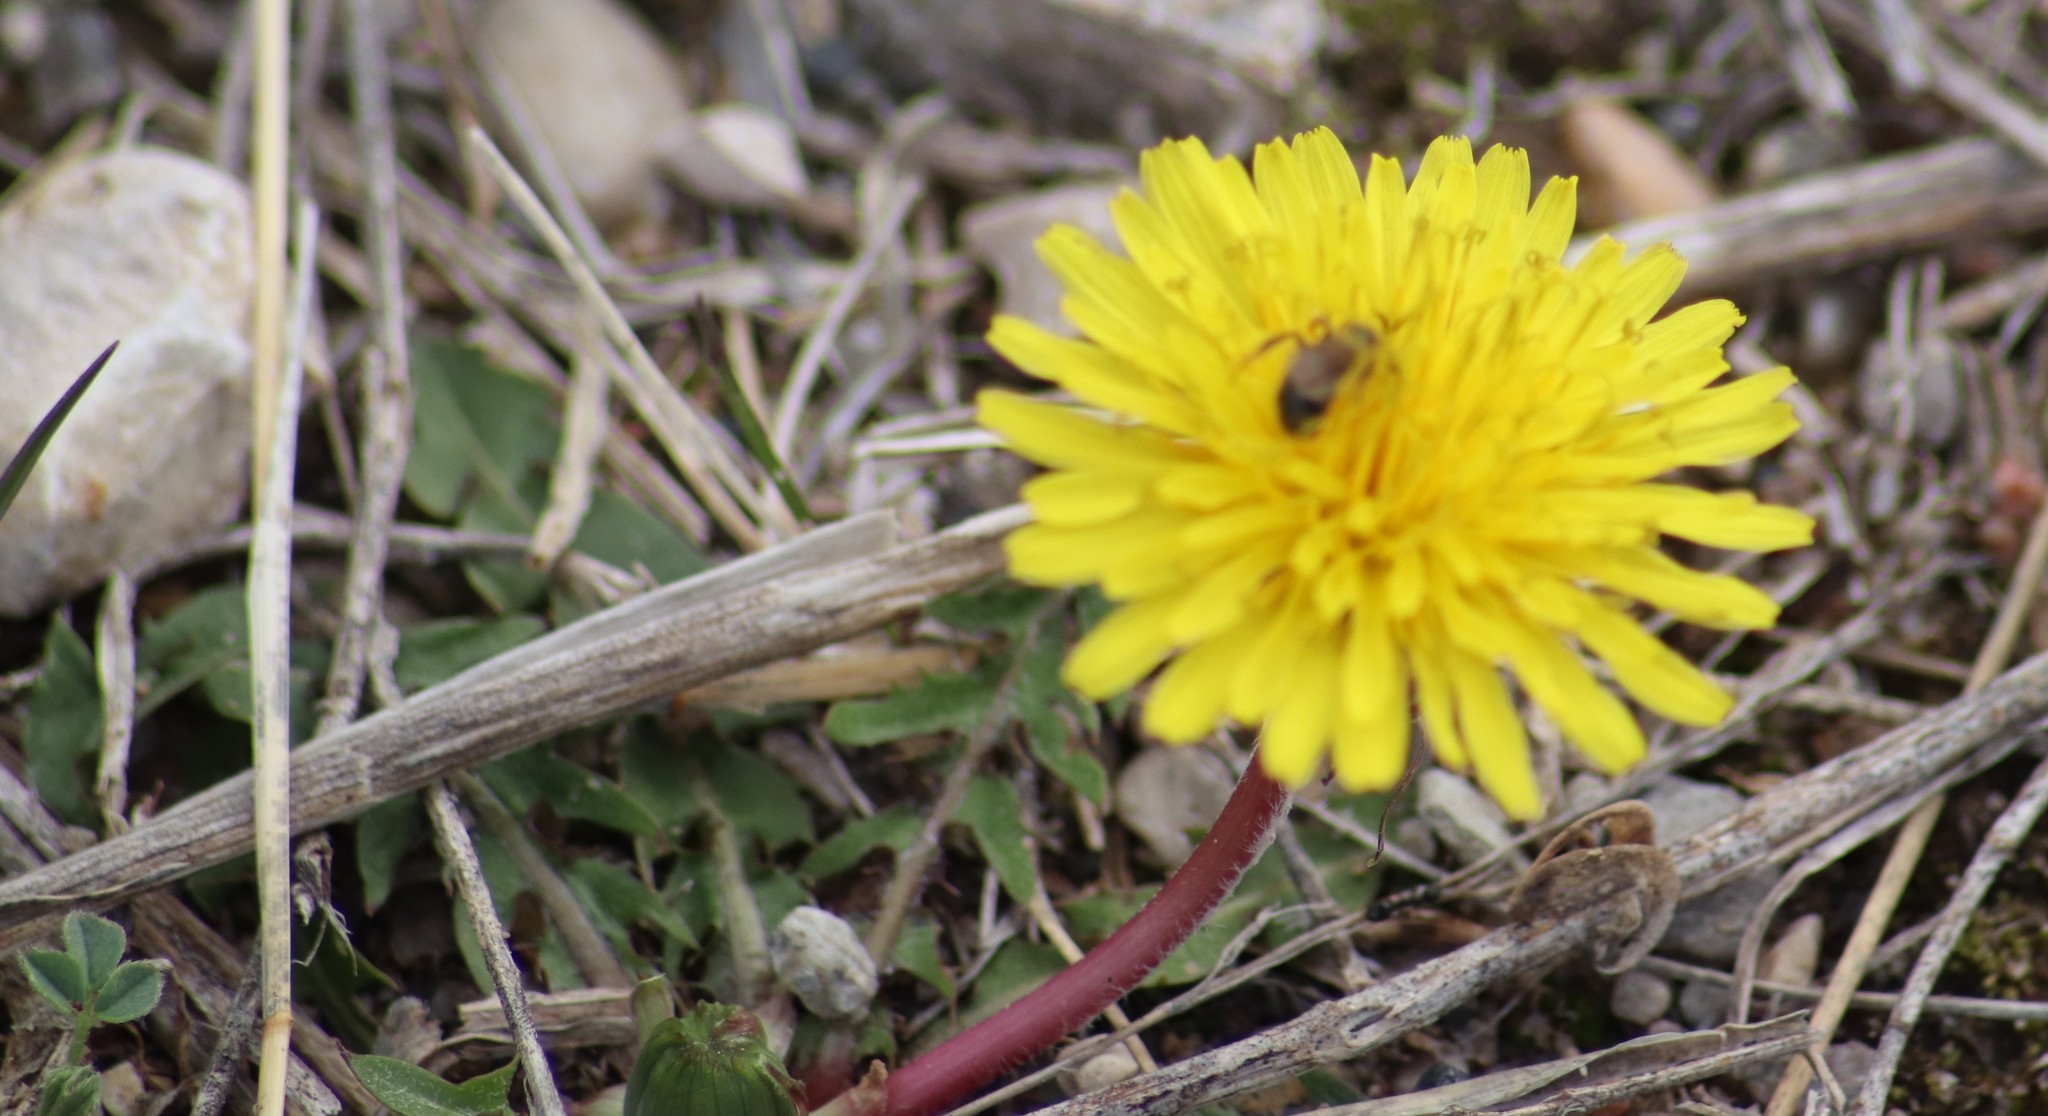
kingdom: Plantae
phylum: Tracheophyta
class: Magnoliopsida
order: Asterales
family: Asteraceae
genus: Taraxacum
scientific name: Taraxacum officinale
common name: Common dandelion
